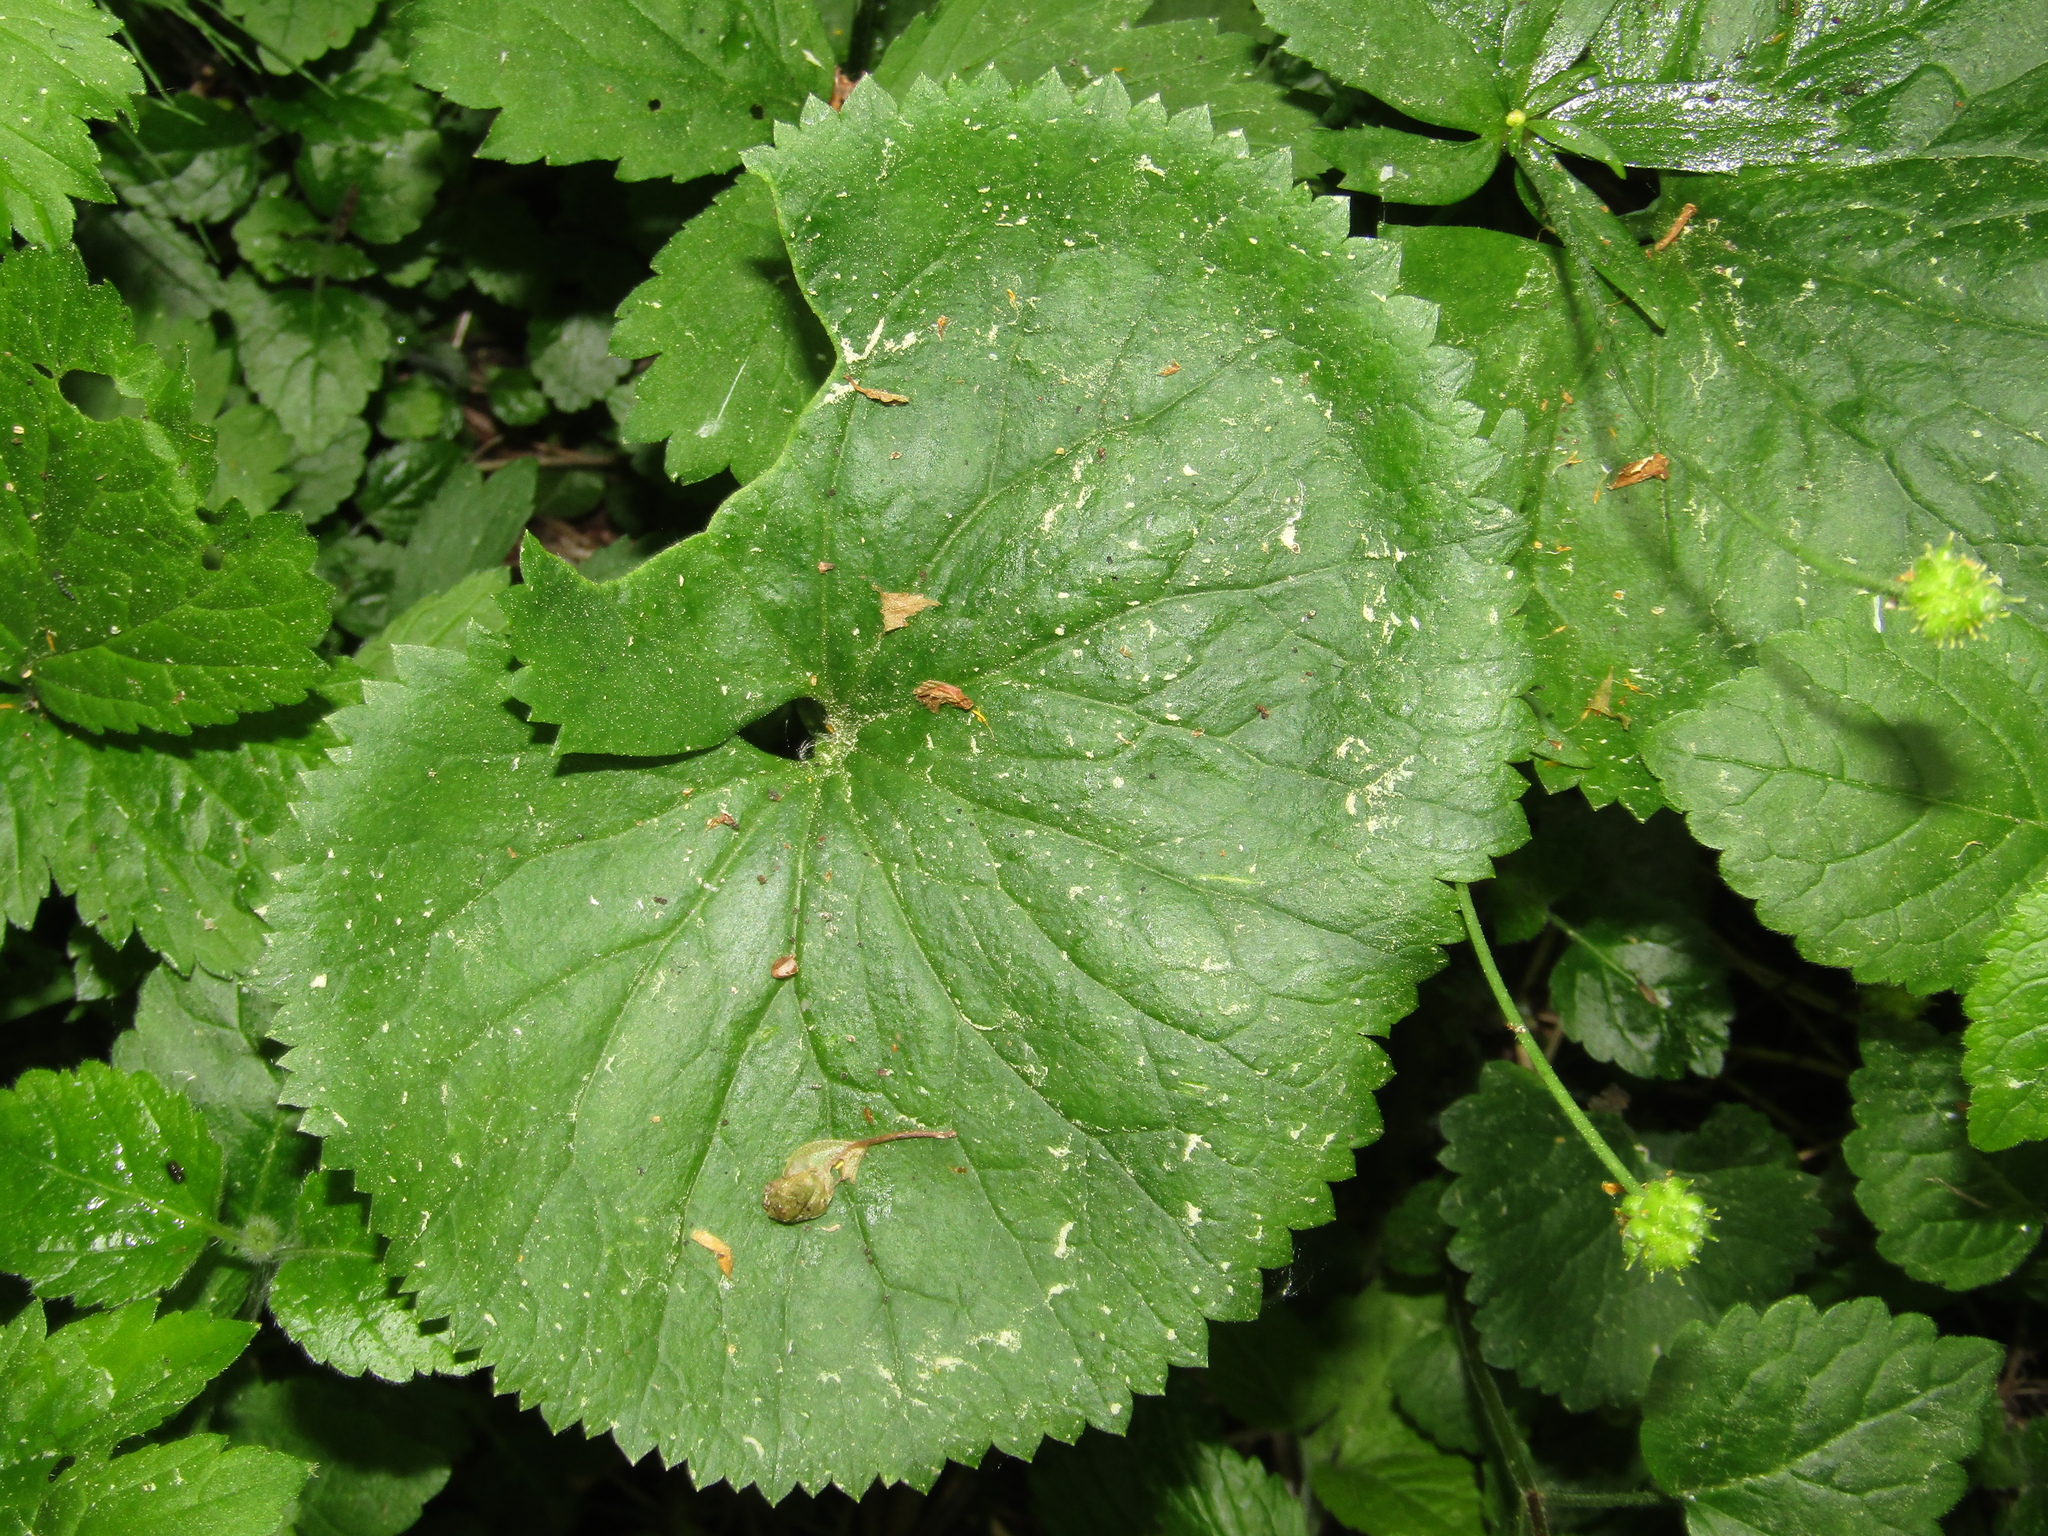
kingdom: Plantae
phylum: Tracheophyta
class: Magnoliopsida
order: Ranunculales
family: Ranunculaceae
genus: Ranunculus
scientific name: Ranunculus cassubicus
